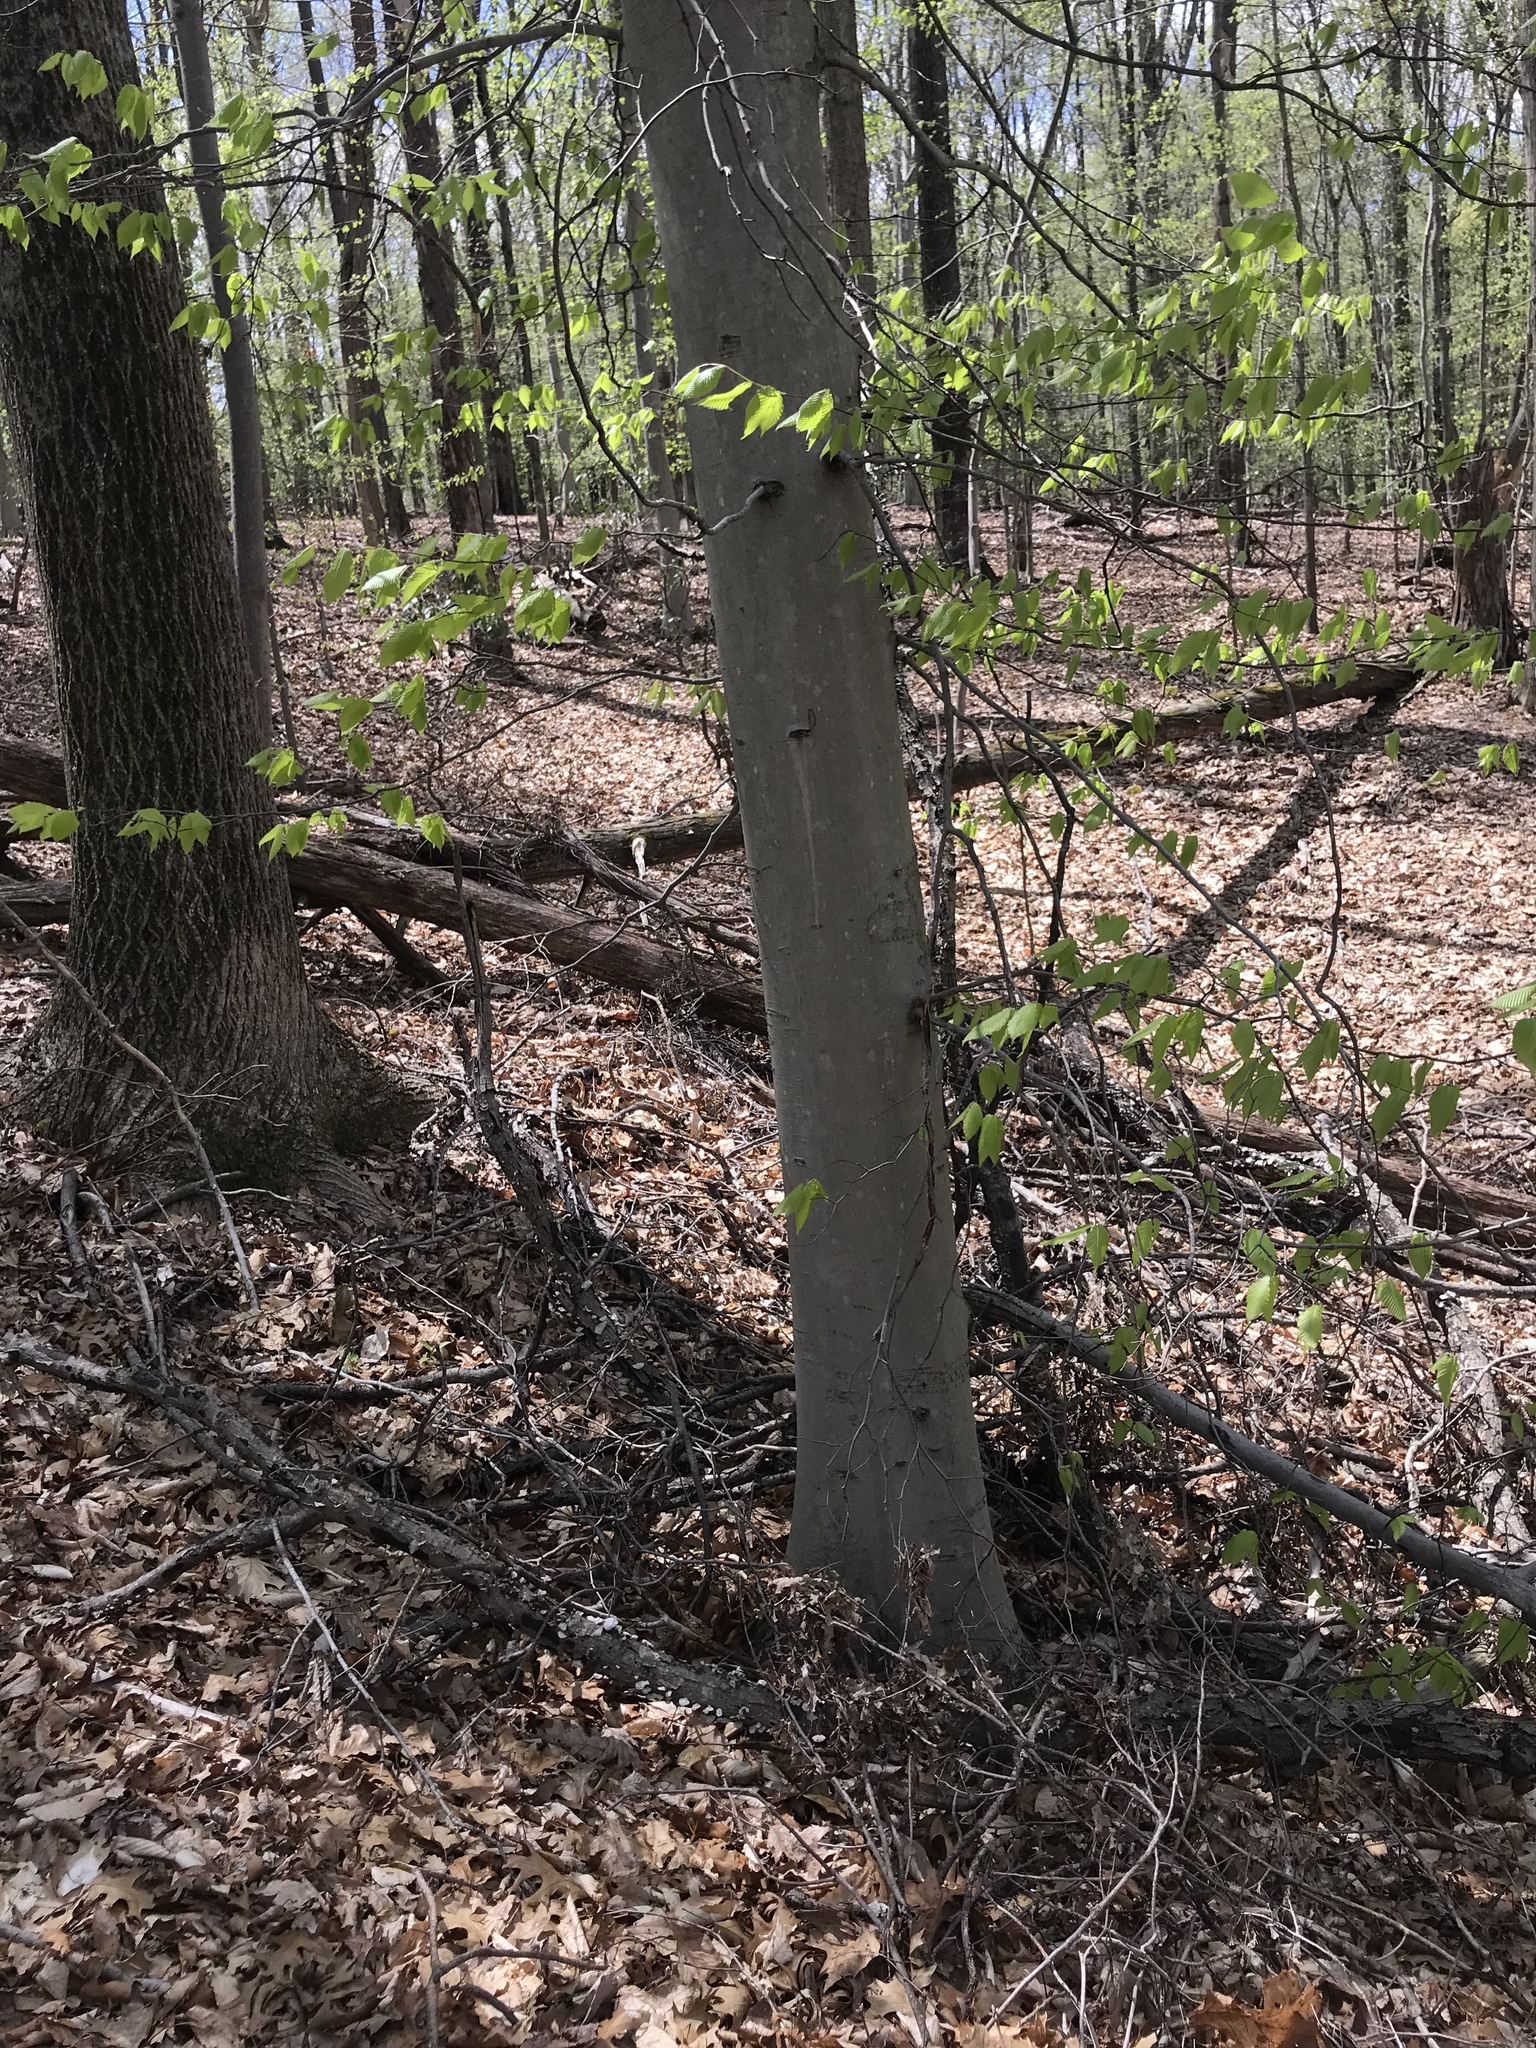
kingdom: Plantae
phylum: Tracheophyta
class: Magnoliopsida
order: Fagales
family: Fagaceae
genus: Fagus
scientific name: Fagus grandifolia
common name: American beech
